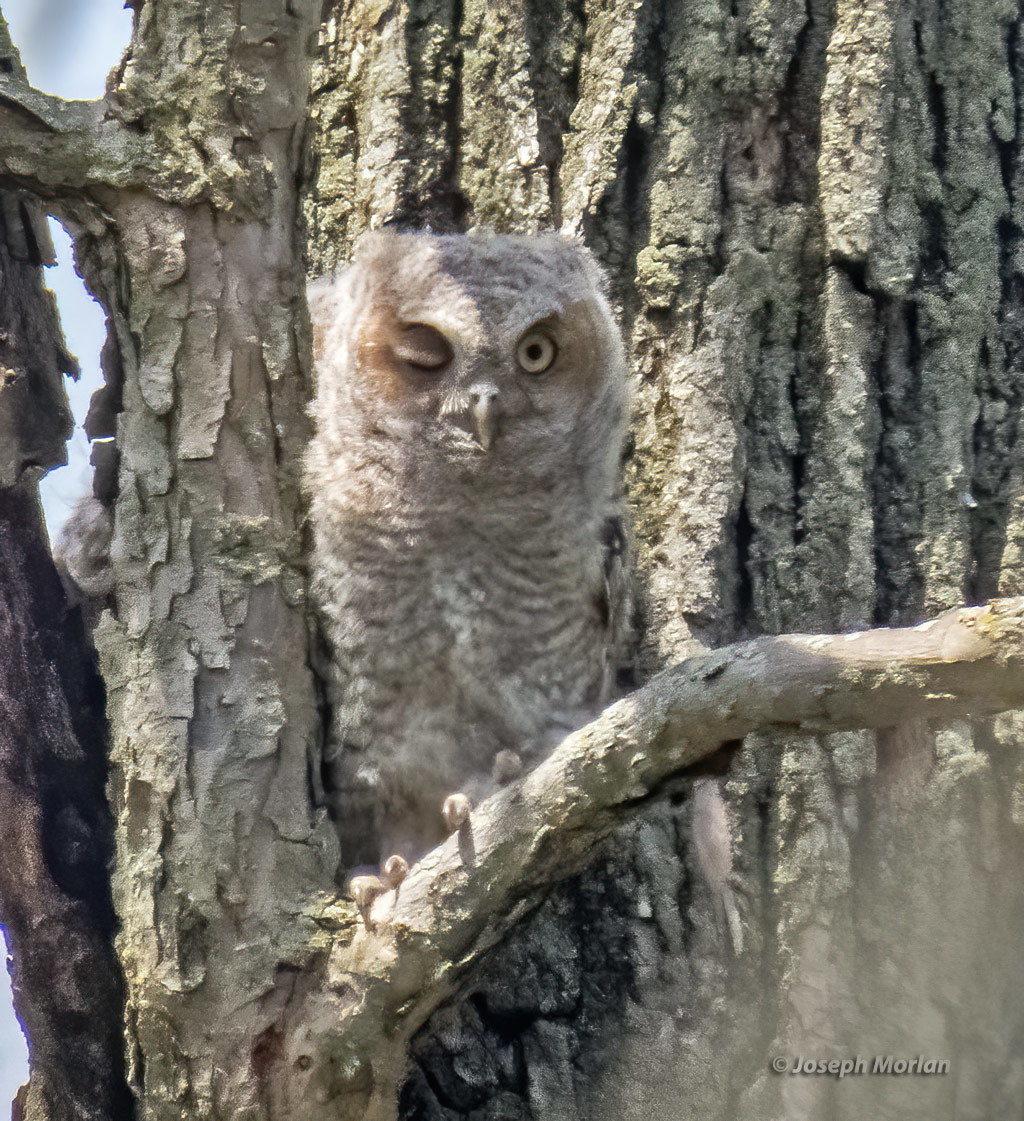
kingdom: Animalia
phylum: Chordata
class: Aves
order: Strigiformes
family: Strigidae
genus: Megascops
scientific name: Megascops asio
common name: Eastern screech-owl
